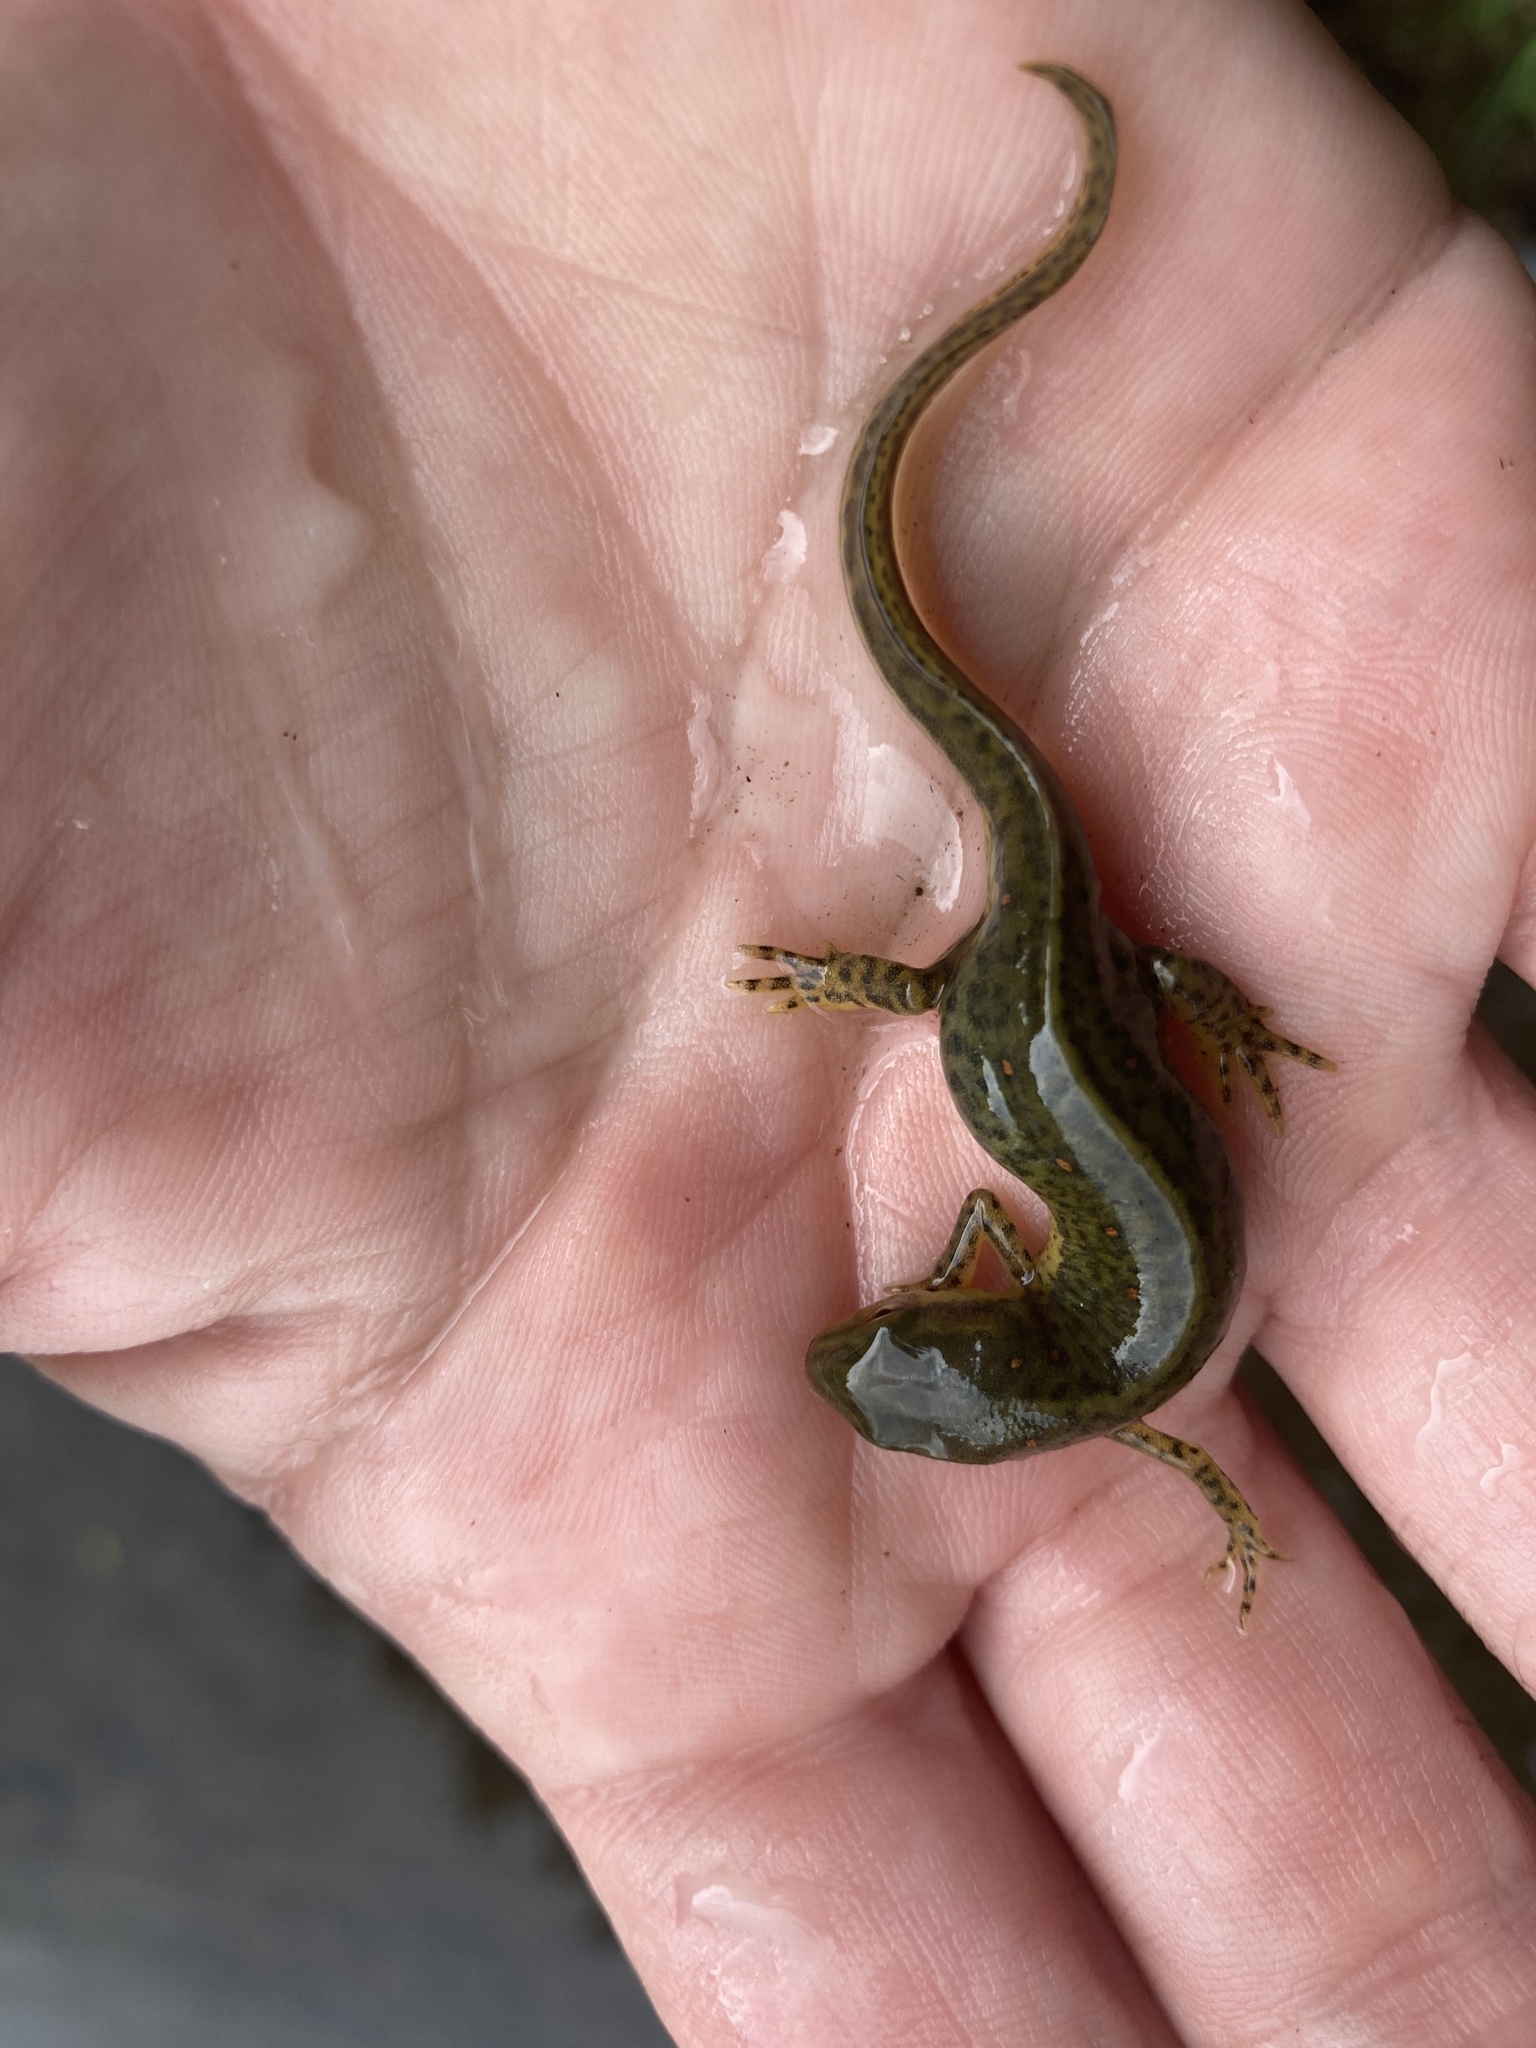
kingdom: Animalia
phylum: Chordata
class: Amphibia
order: Caudata
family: Salamandridae
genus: Notophthalmus
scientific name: Notophthalmus viridescens
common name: Eastern newt
